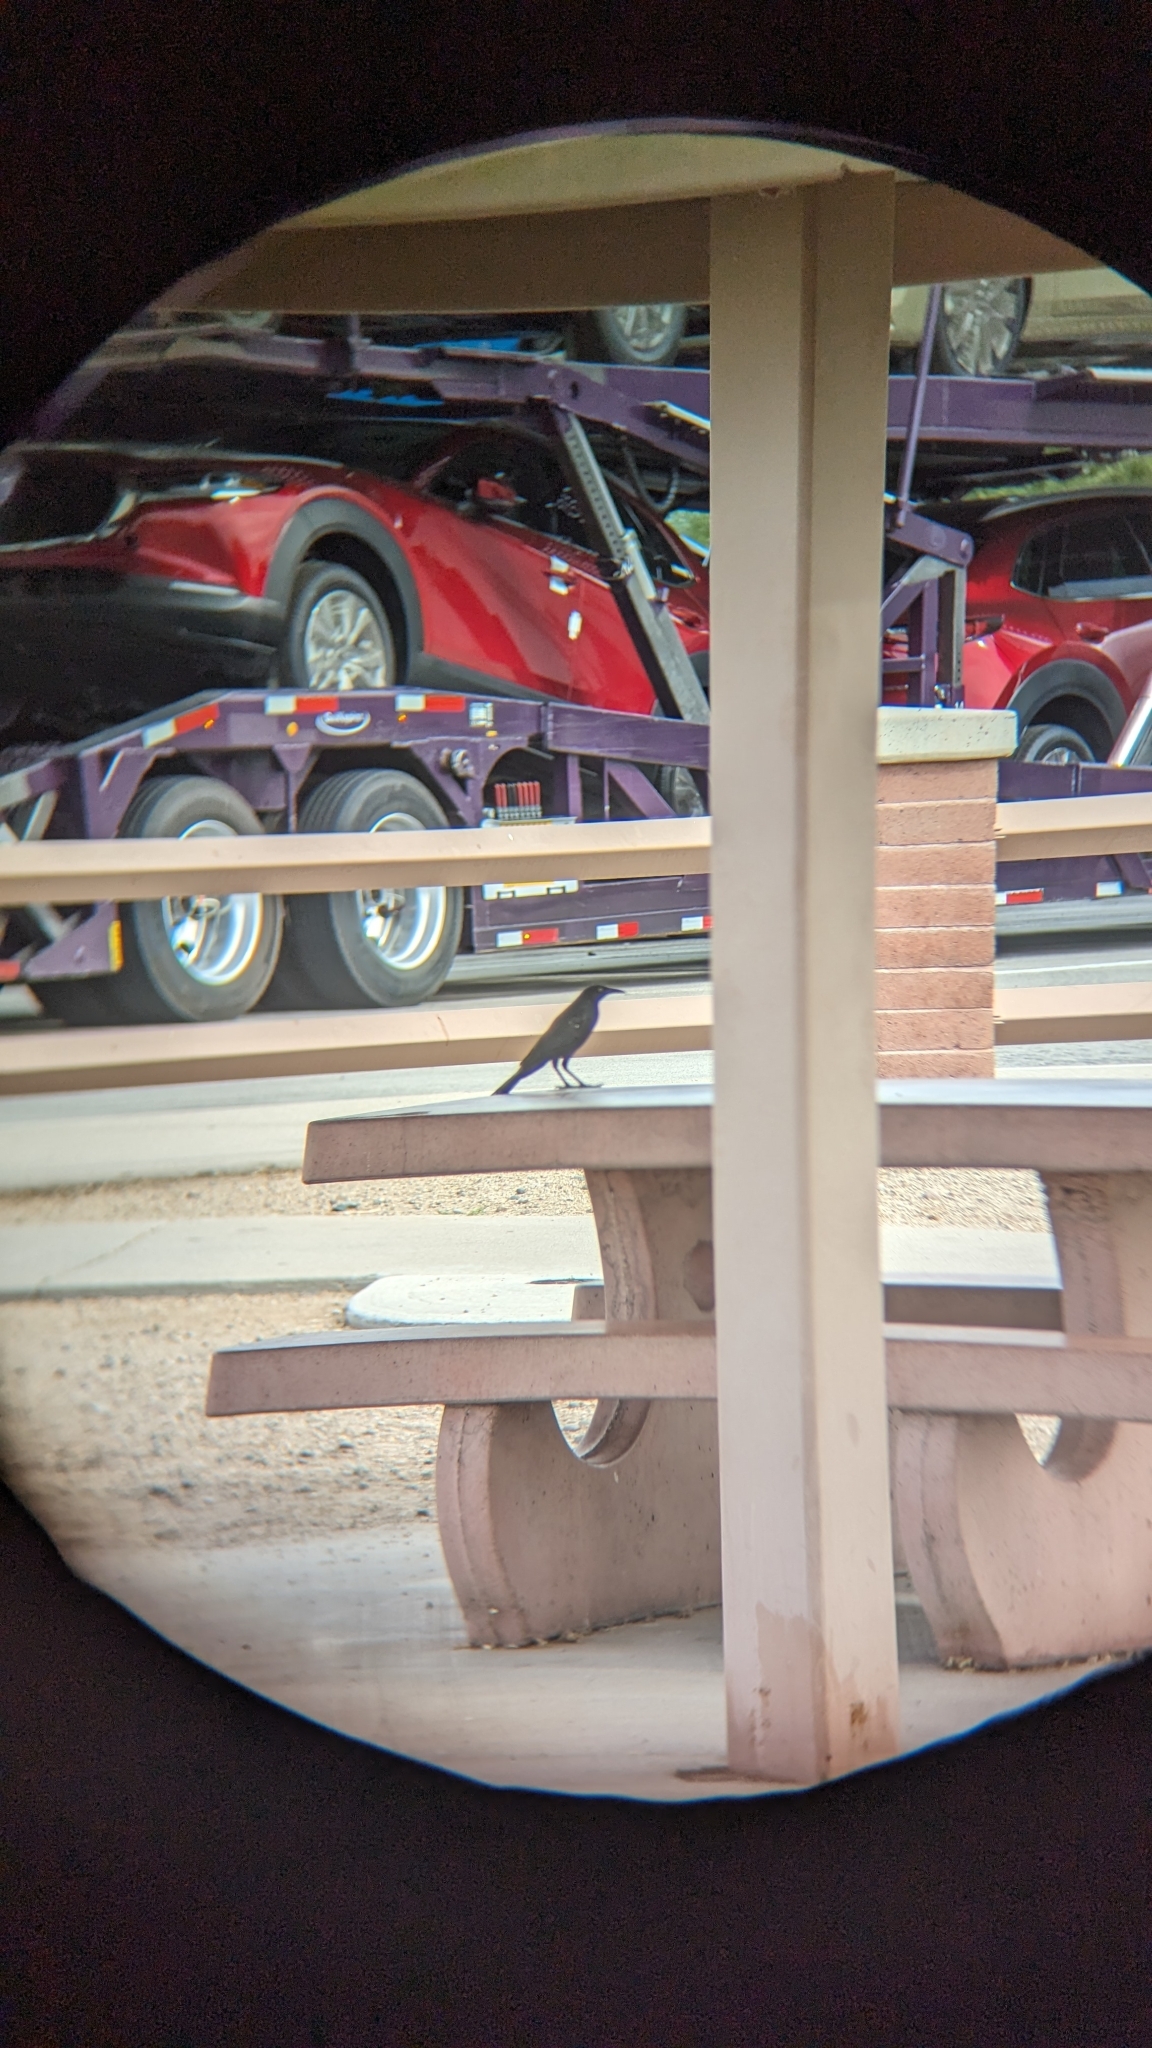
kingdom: Animalia
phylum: Chordata
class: Aves
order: Passeriformes
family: Icteridae
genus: Quiscalus
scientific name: Quiscalus mexicanus
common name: Great-tailed grackle
